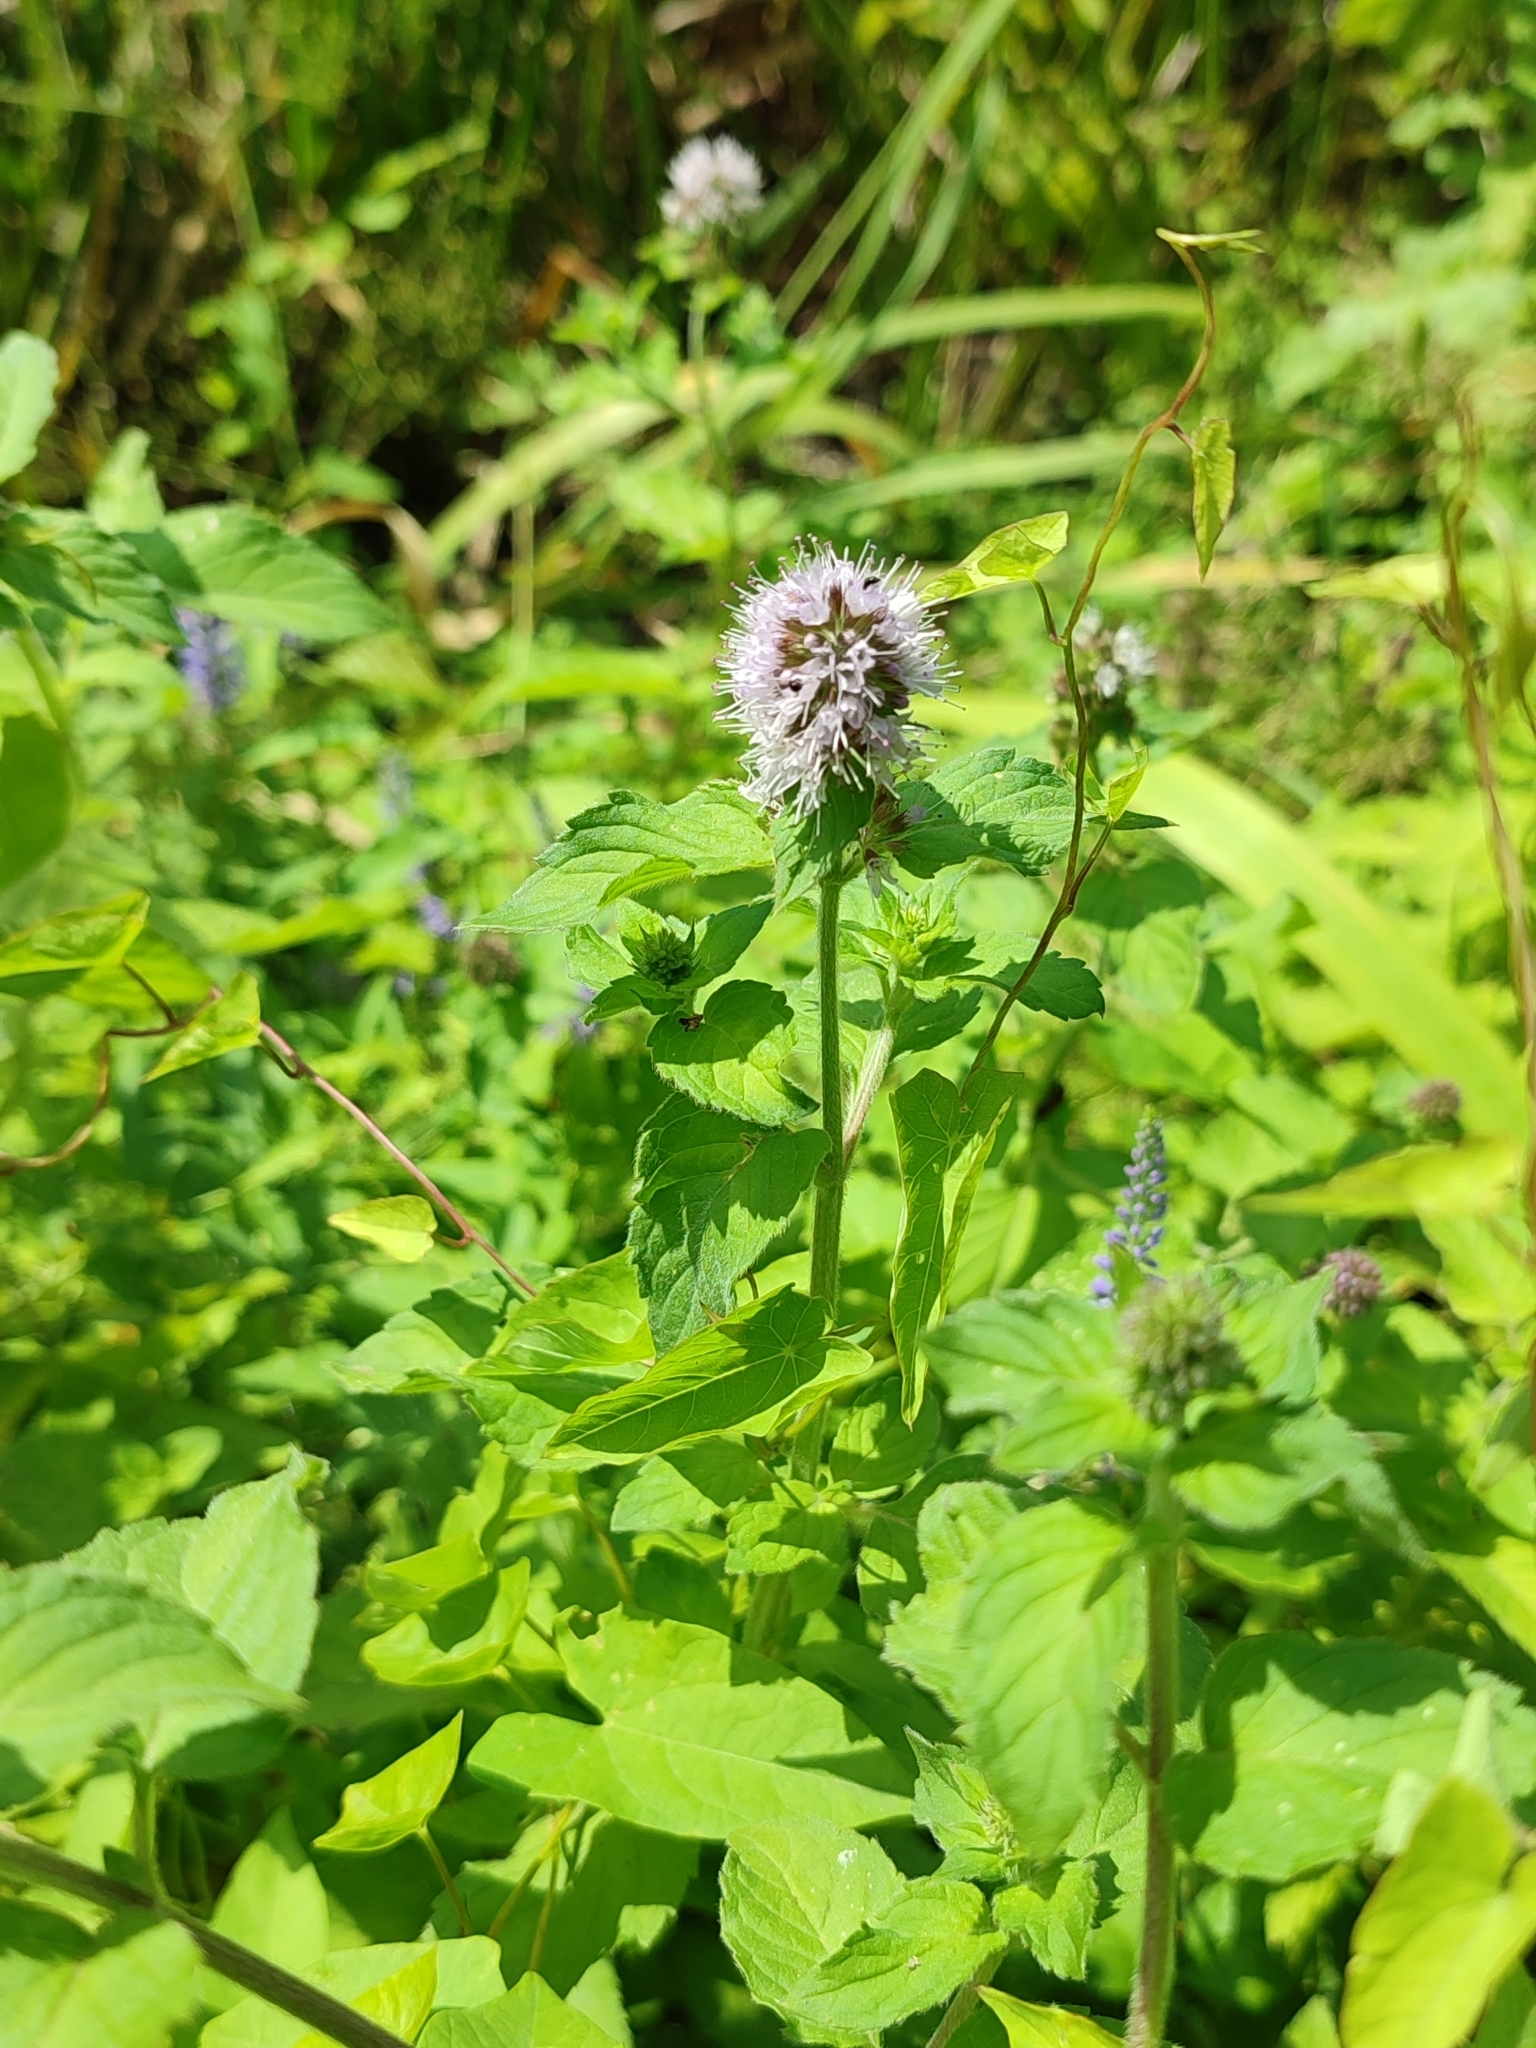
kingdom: Plantae
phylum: Tracheophyta
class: Magnoliopsida
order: Lamiales
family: Lamiaceae
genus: Mentha
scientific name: Mentha aquatica
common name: Water mint
